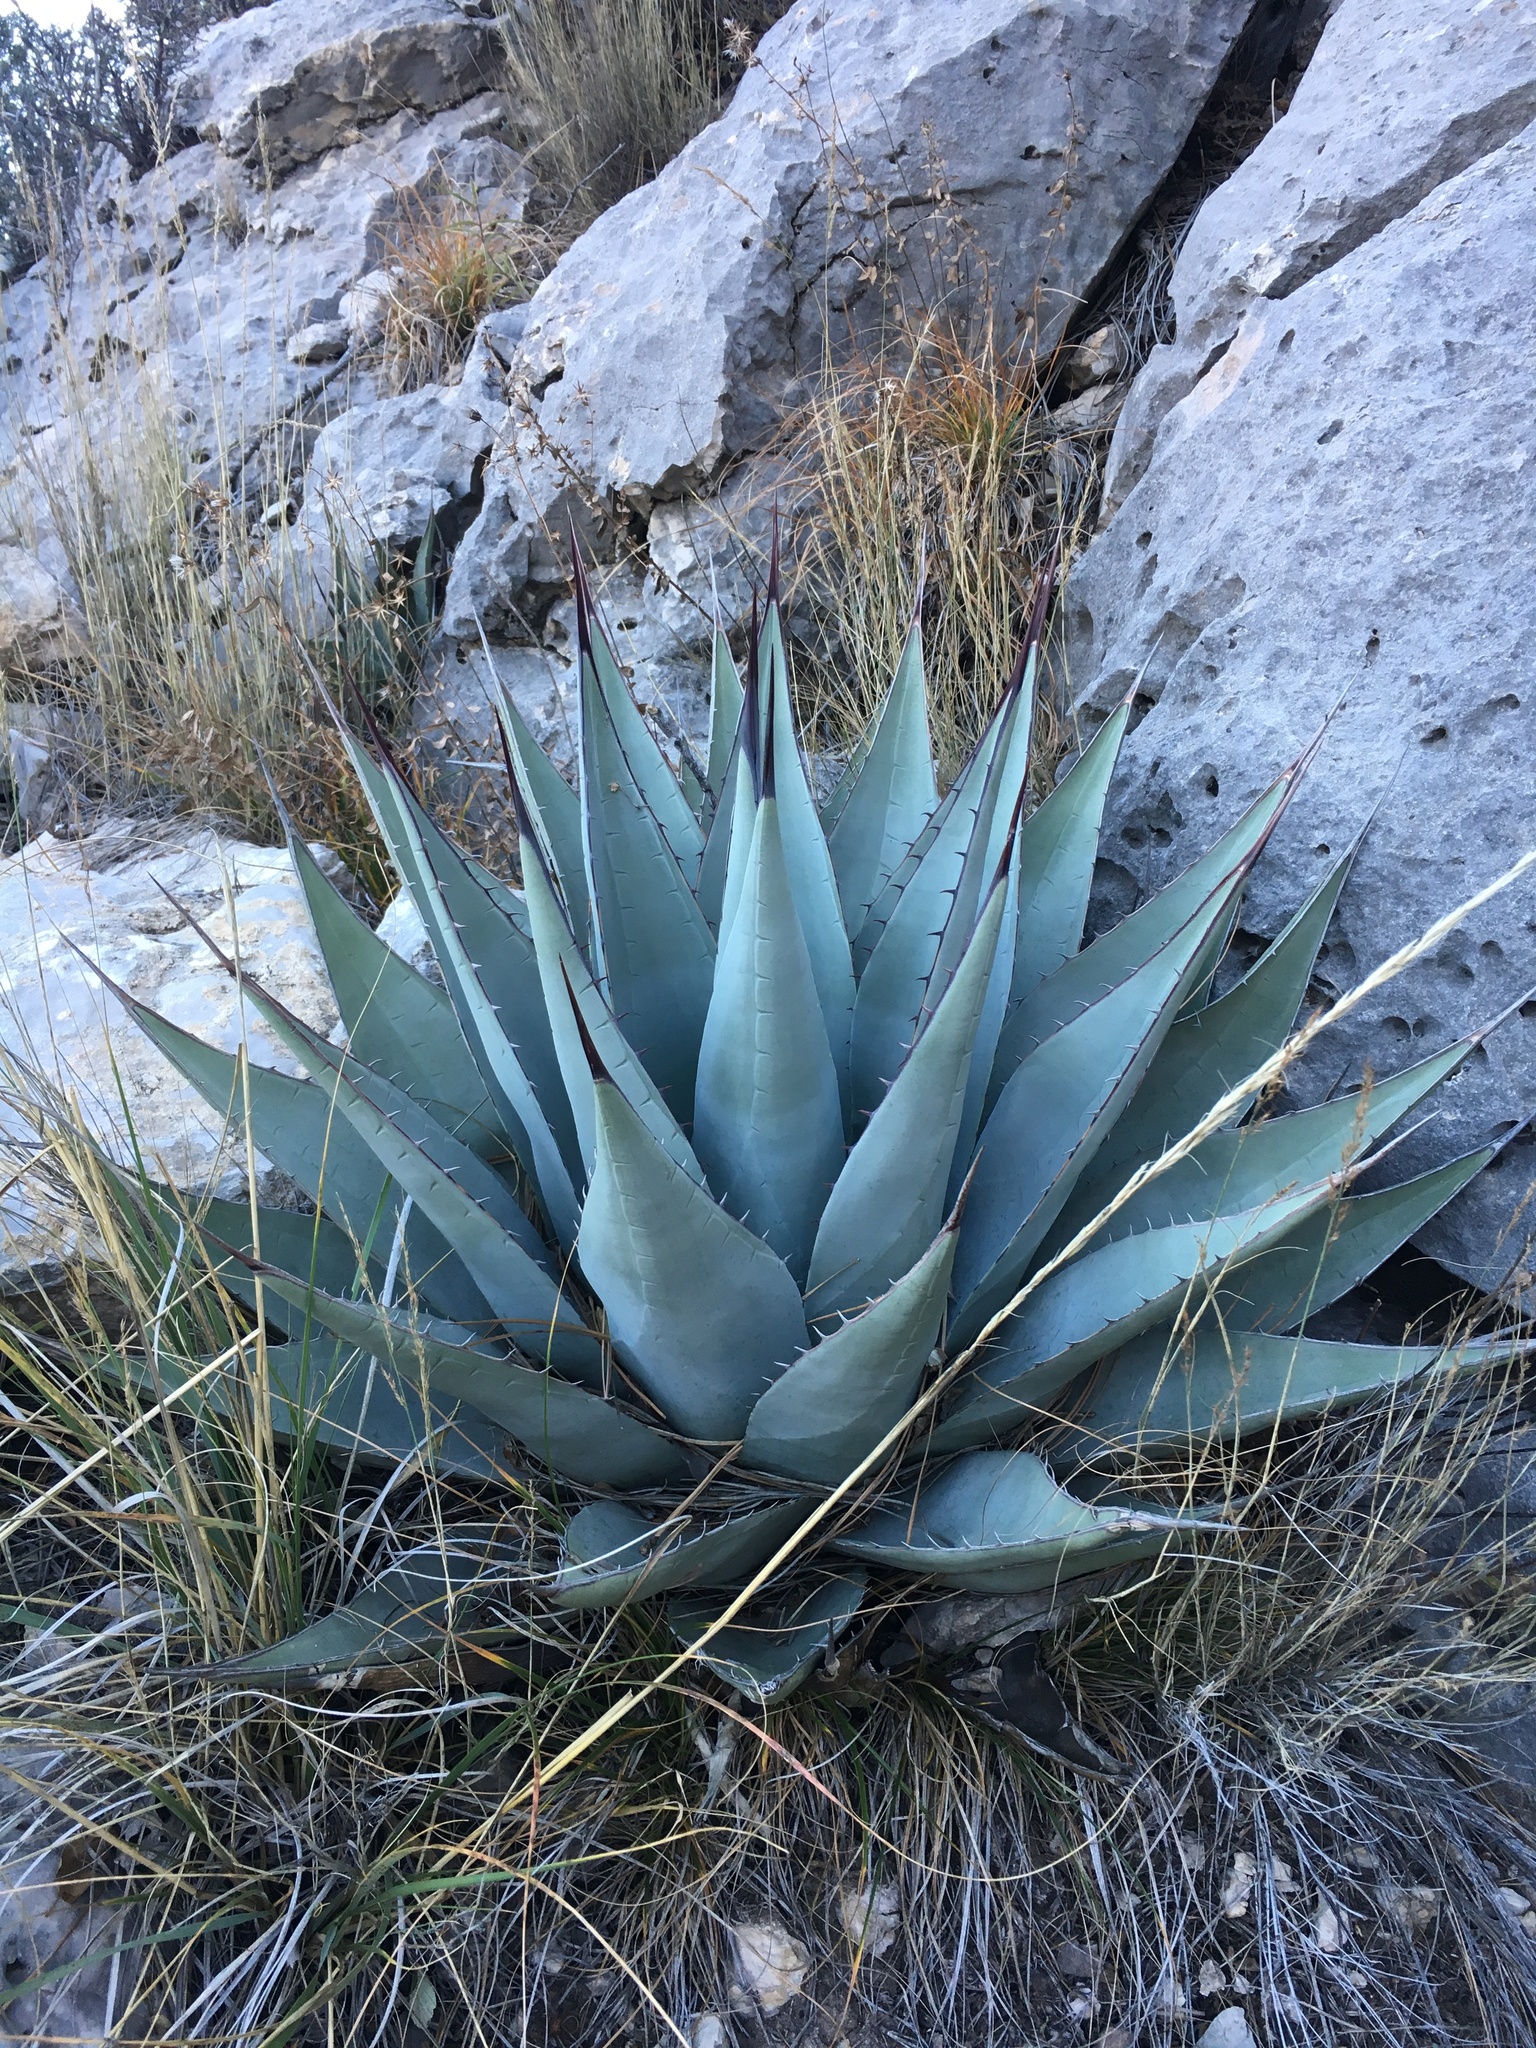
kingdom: Plantae
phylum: Tracheophyta
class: Liliopsida
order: Asparagales
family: Asparagaceae
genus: Agave
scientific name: Agave parryi
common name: Parry's agave
